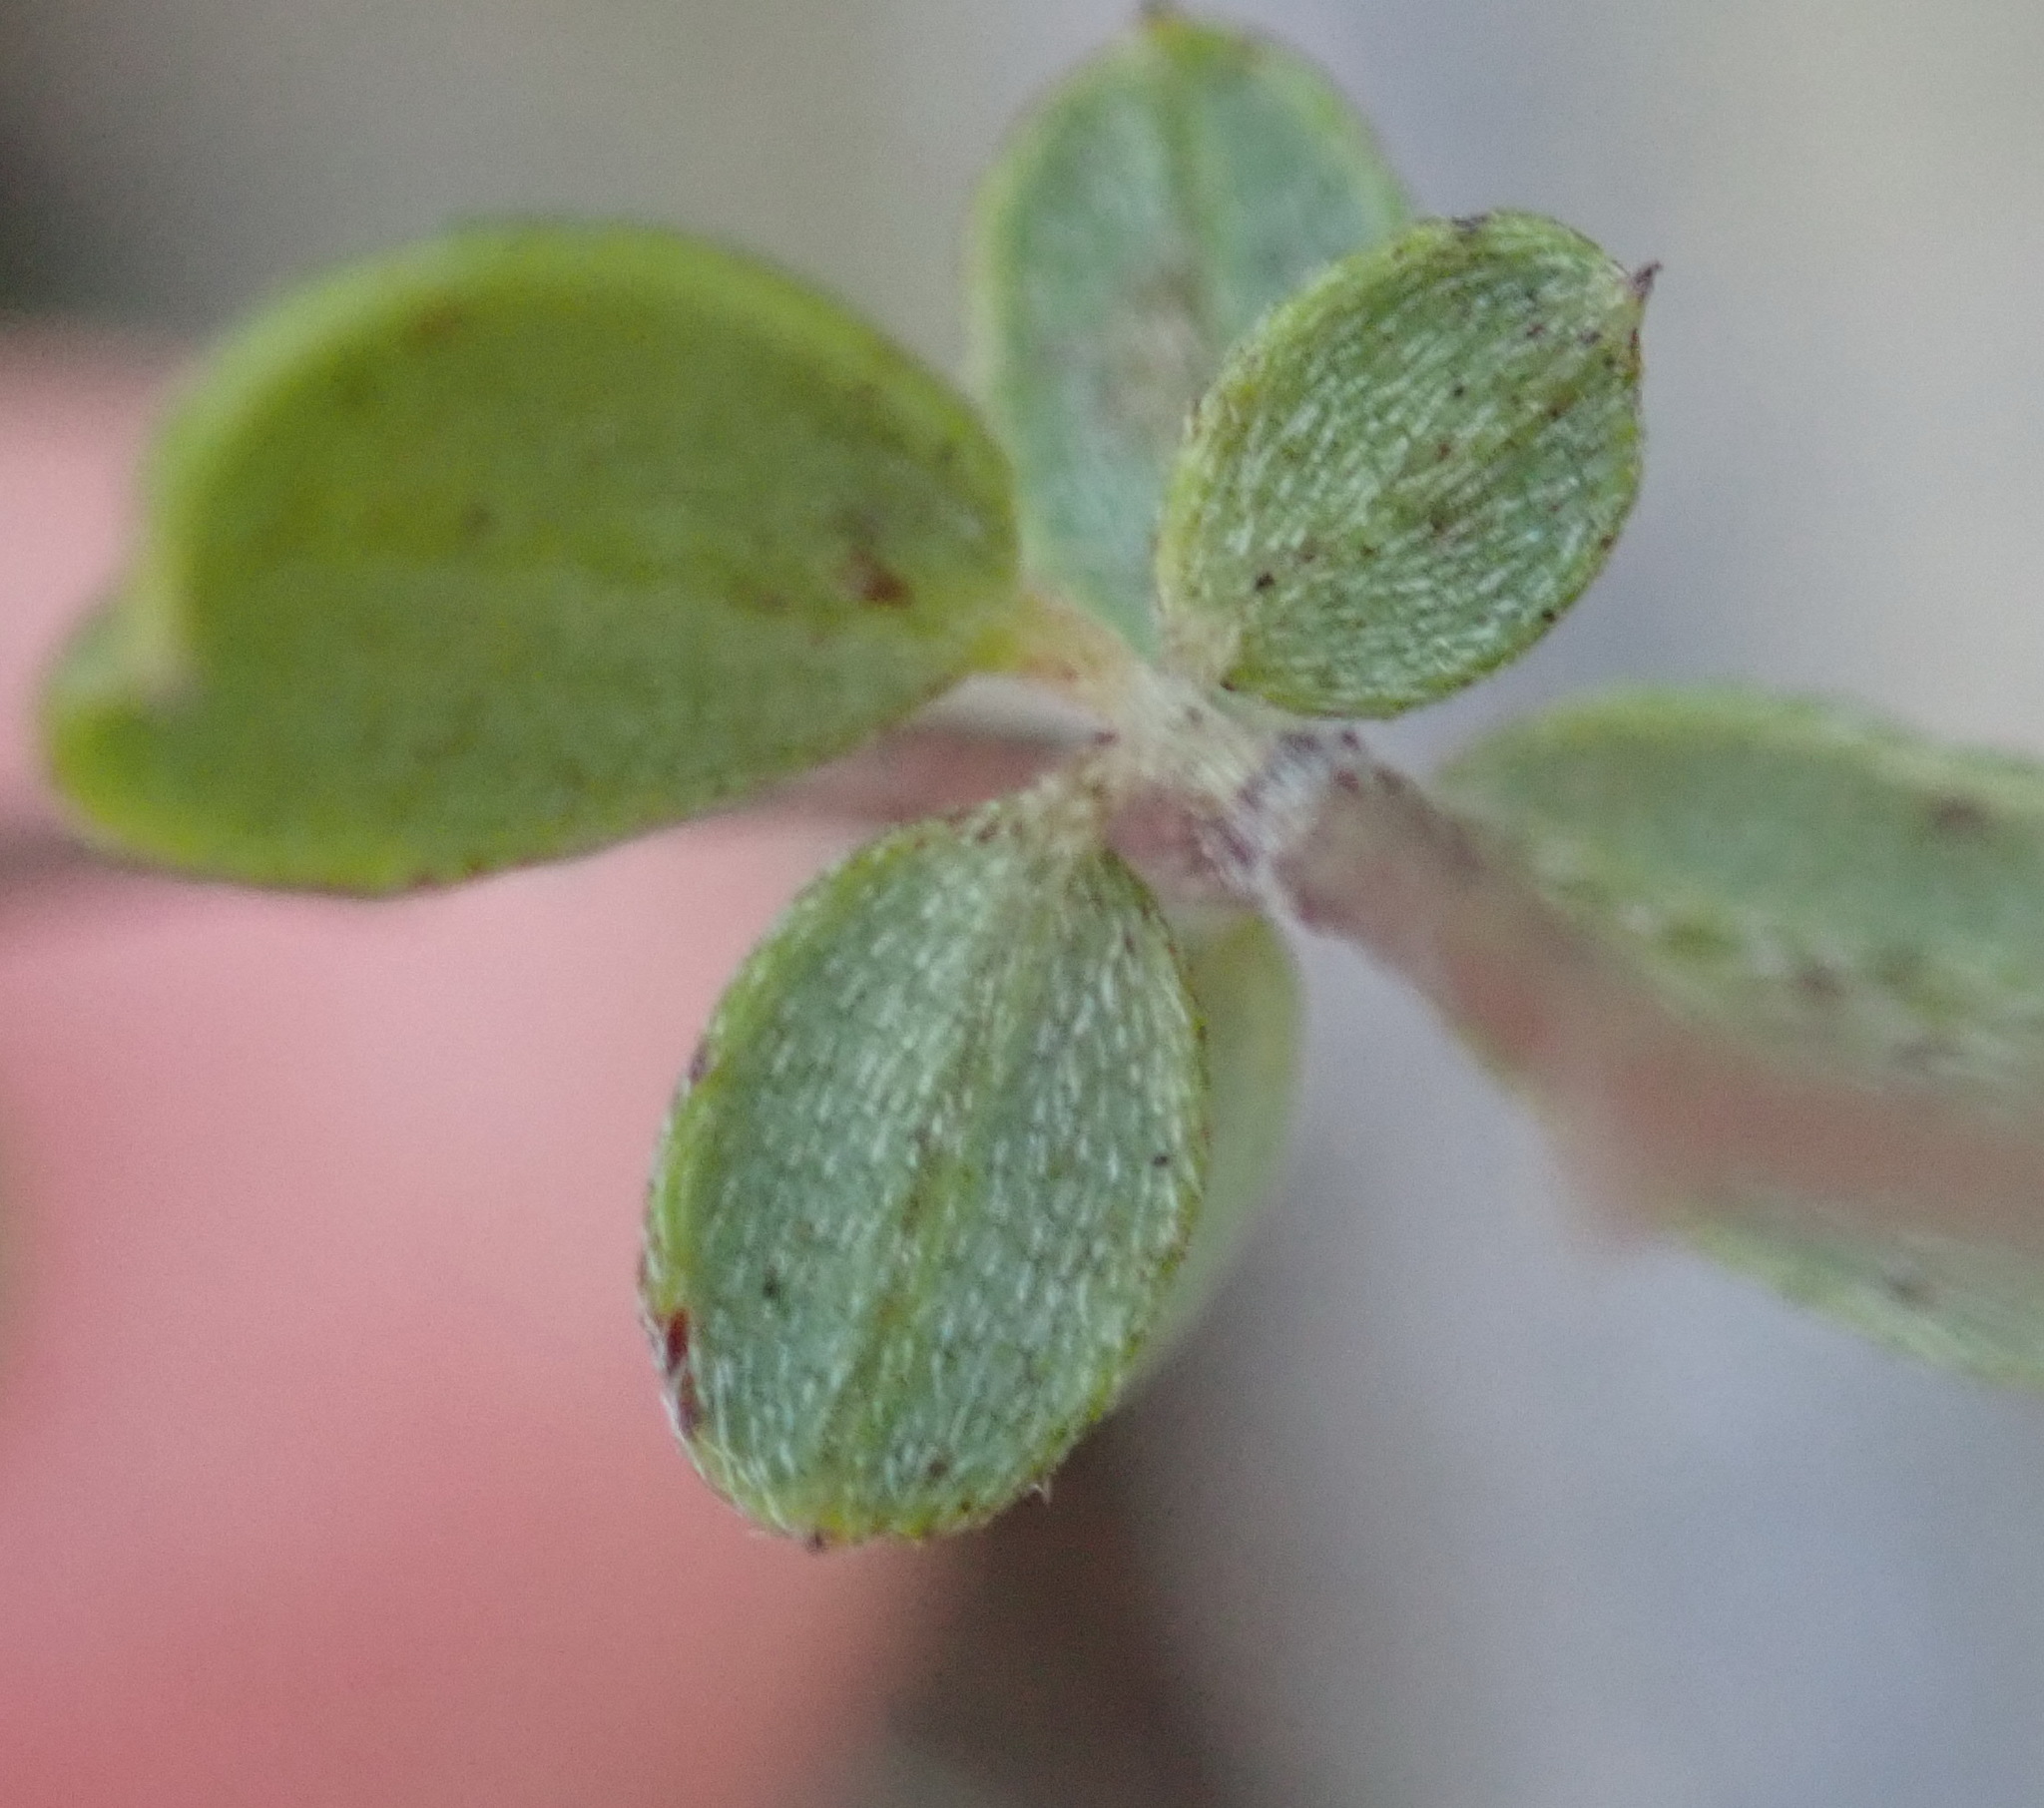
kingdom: Plantae
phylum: Tracheophyta
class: Magnoliopsida
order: Fabales
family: Fabaceae
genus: Indigofera
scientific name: Indigofera sarmentosa
